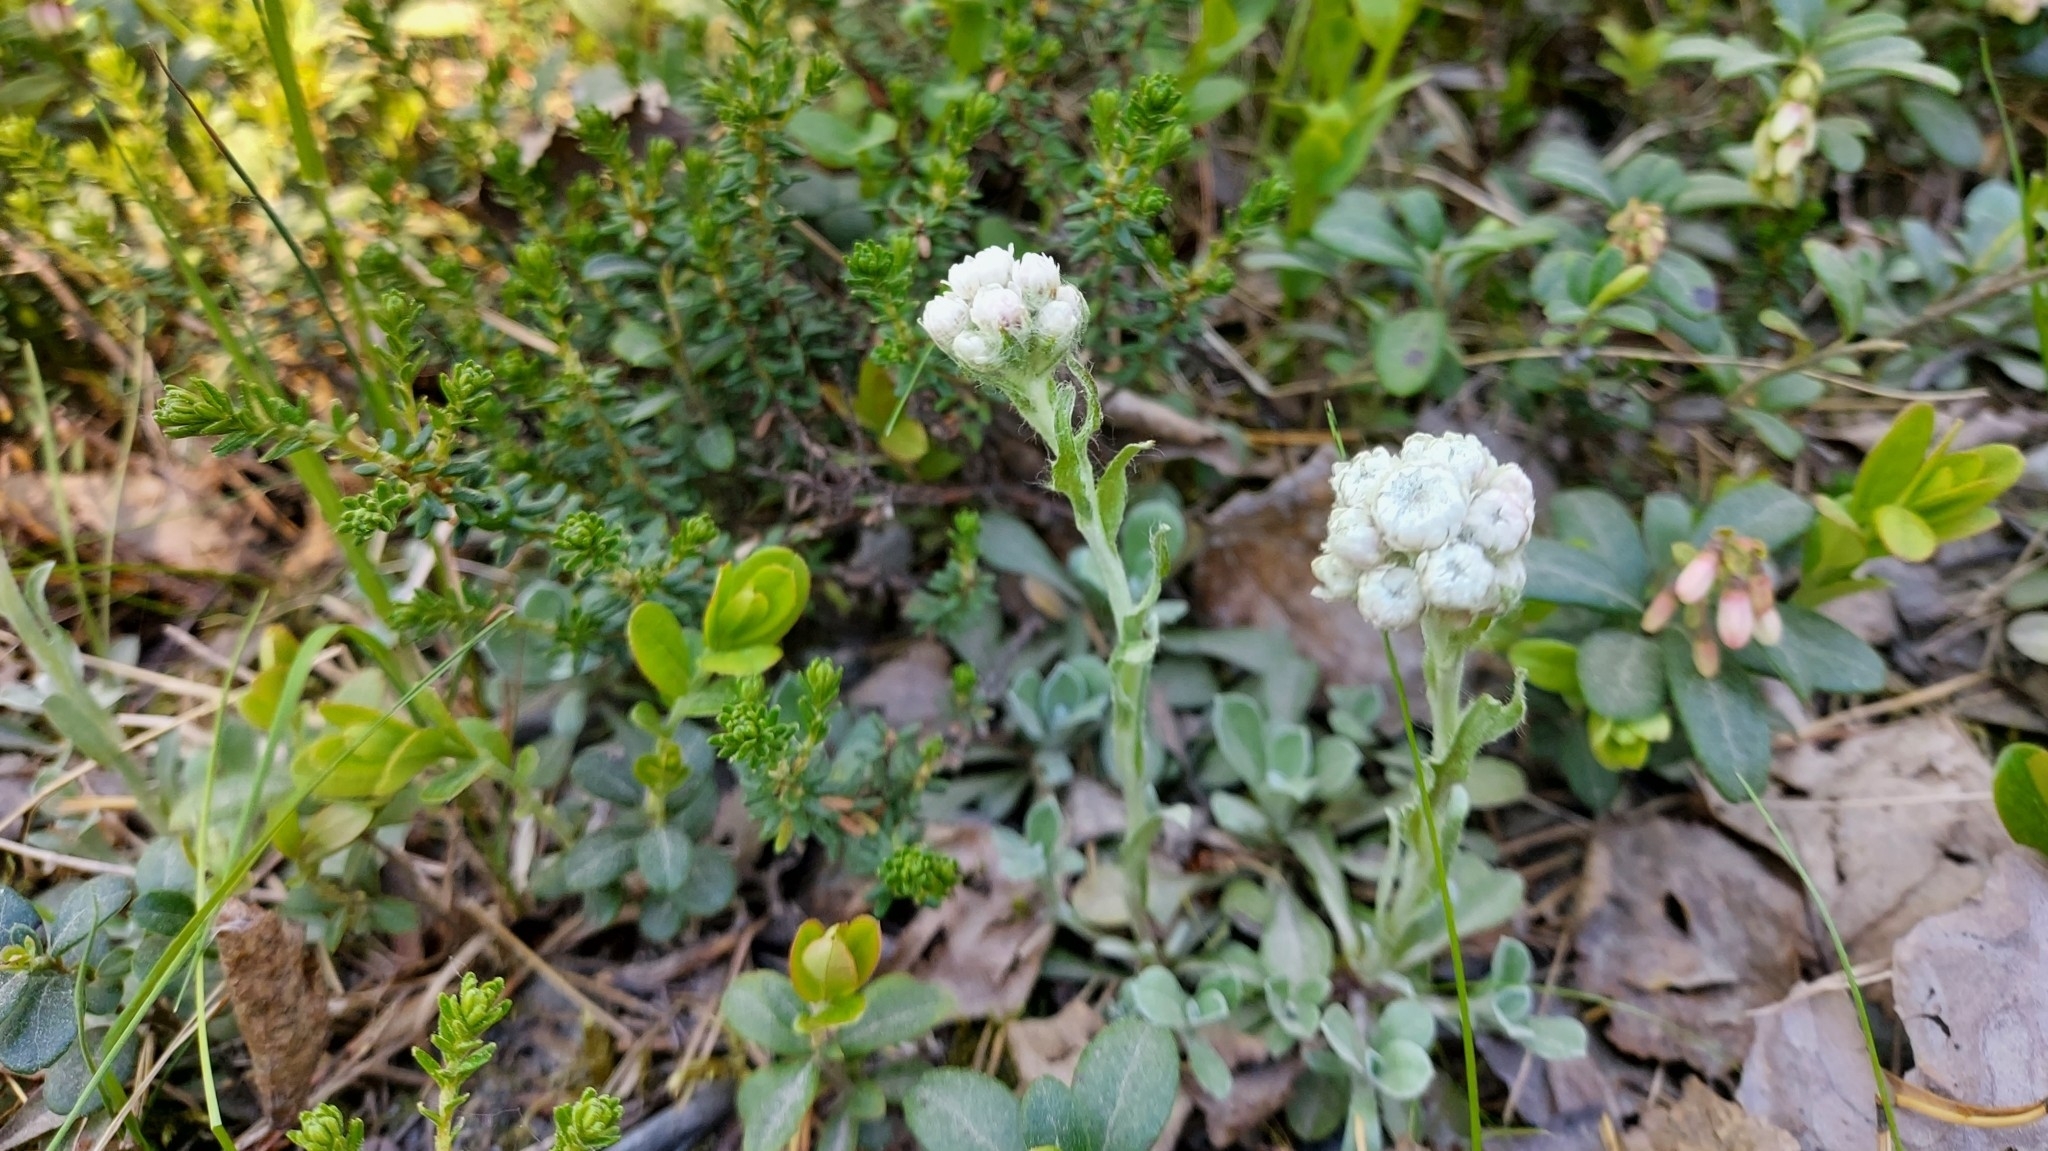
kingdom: Plantae
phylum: Tracheophyta
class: Magnoliopsida
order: Asterales
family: Asteraceae
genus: Antennaria
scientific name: Antennaria dioica
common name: Mountain everlasting
